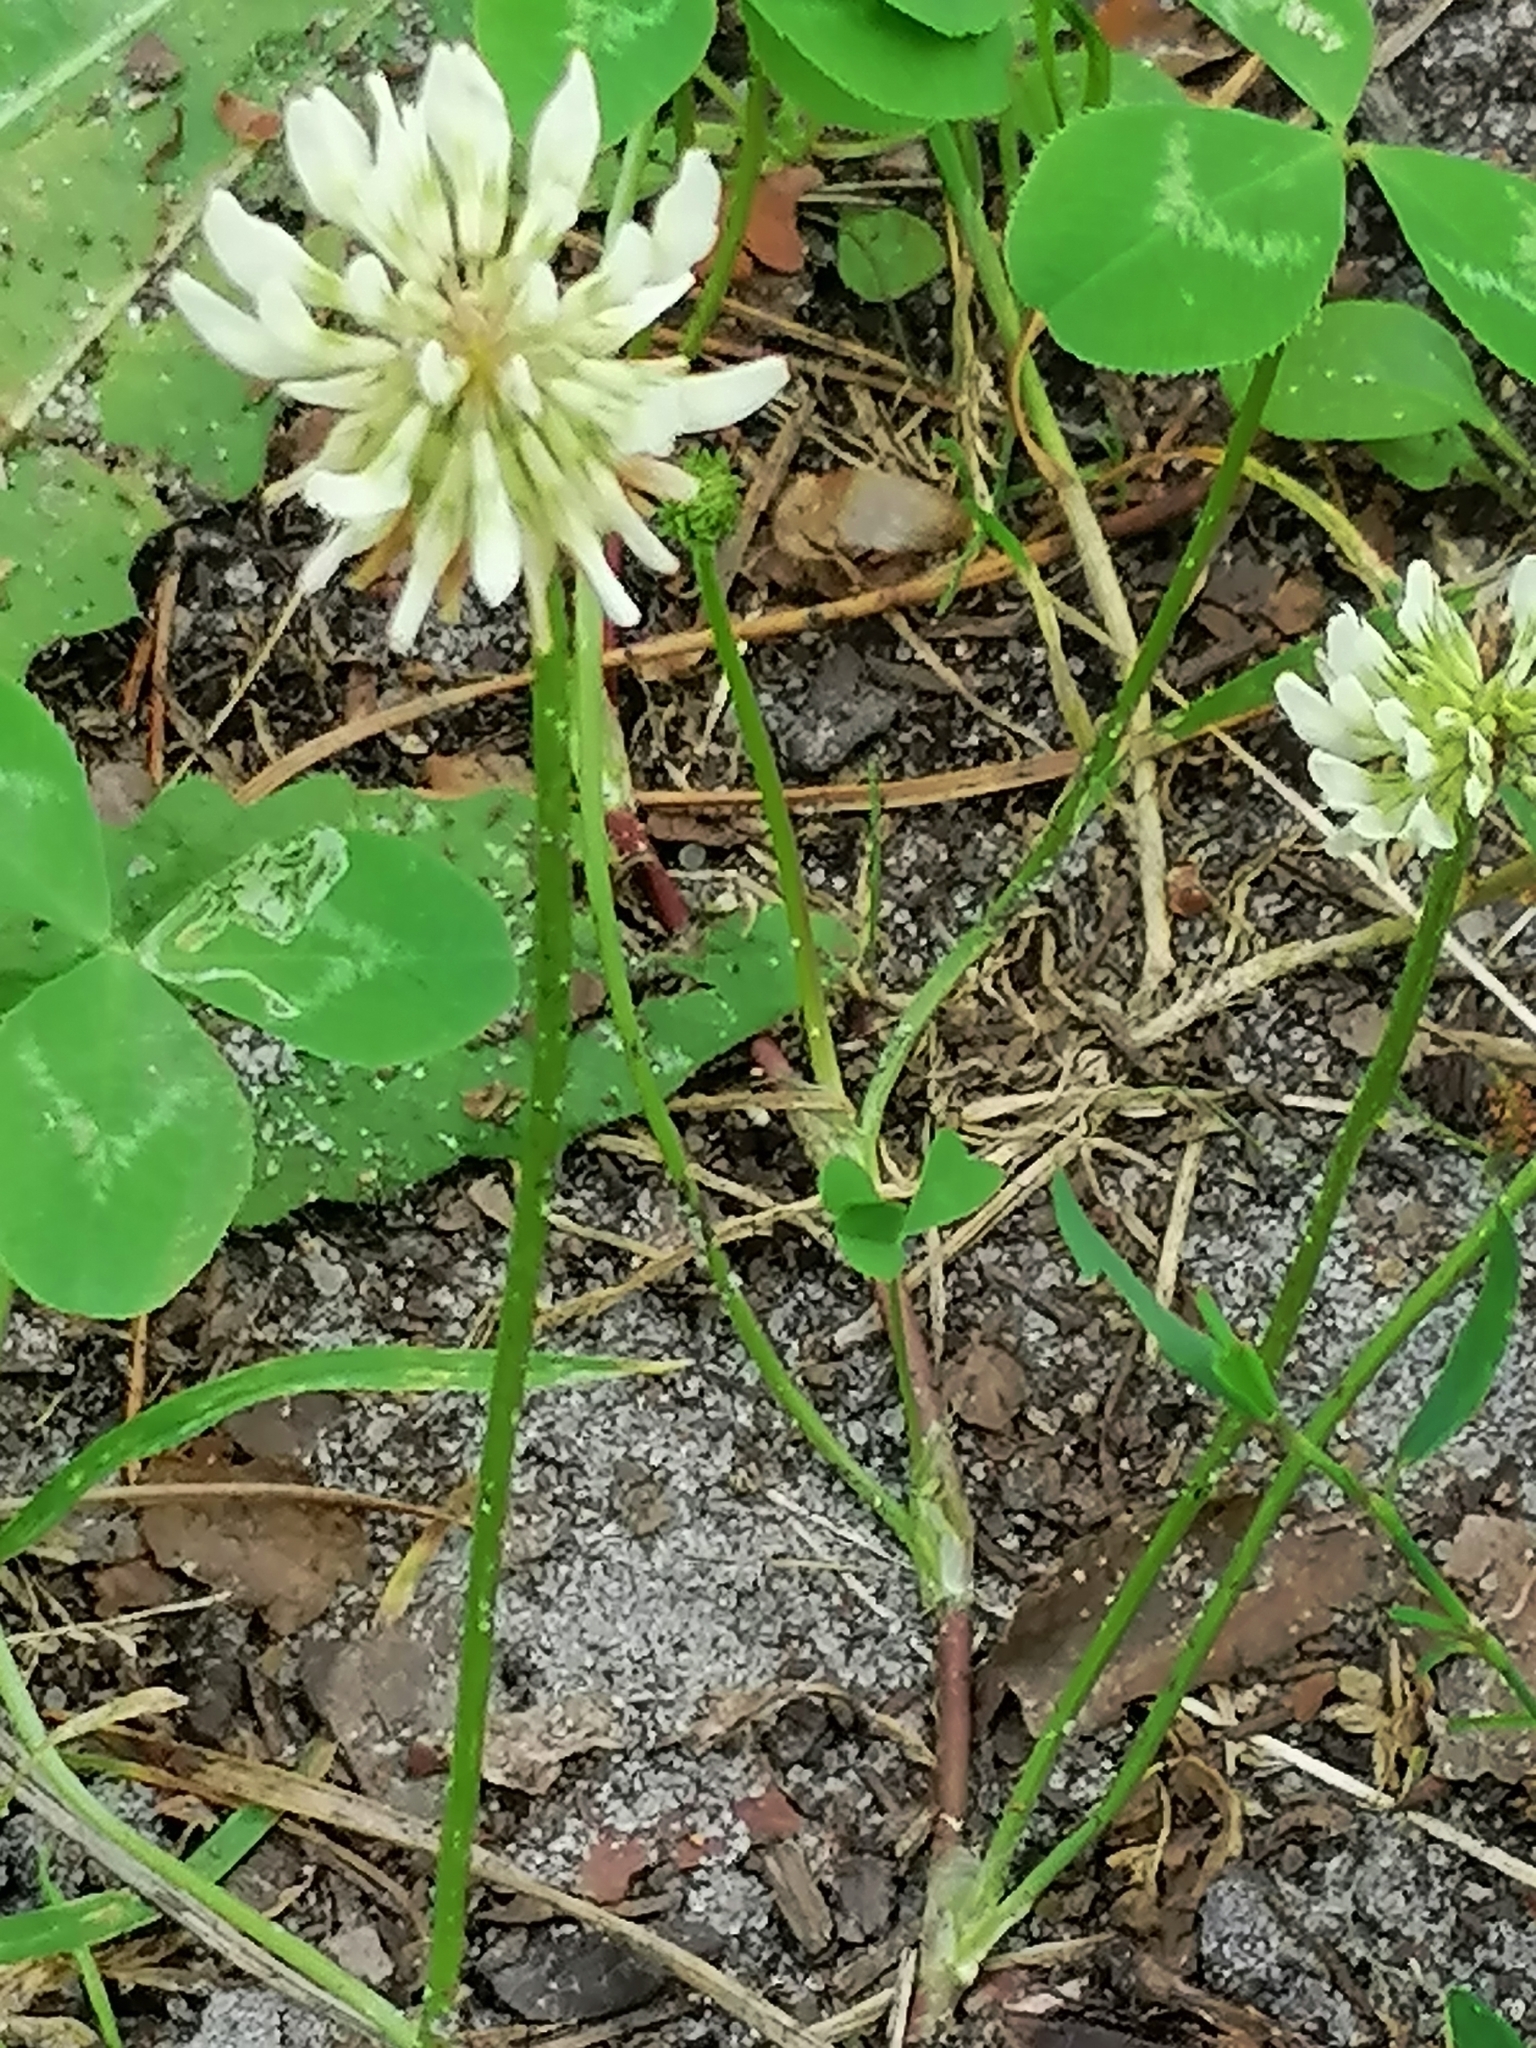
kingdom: Plantae
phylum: Tracheophyta
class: Magnoliopsida
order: Fabales
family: Fabaceae
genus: Trifolium
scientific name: Trifolium repens
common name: White clover
